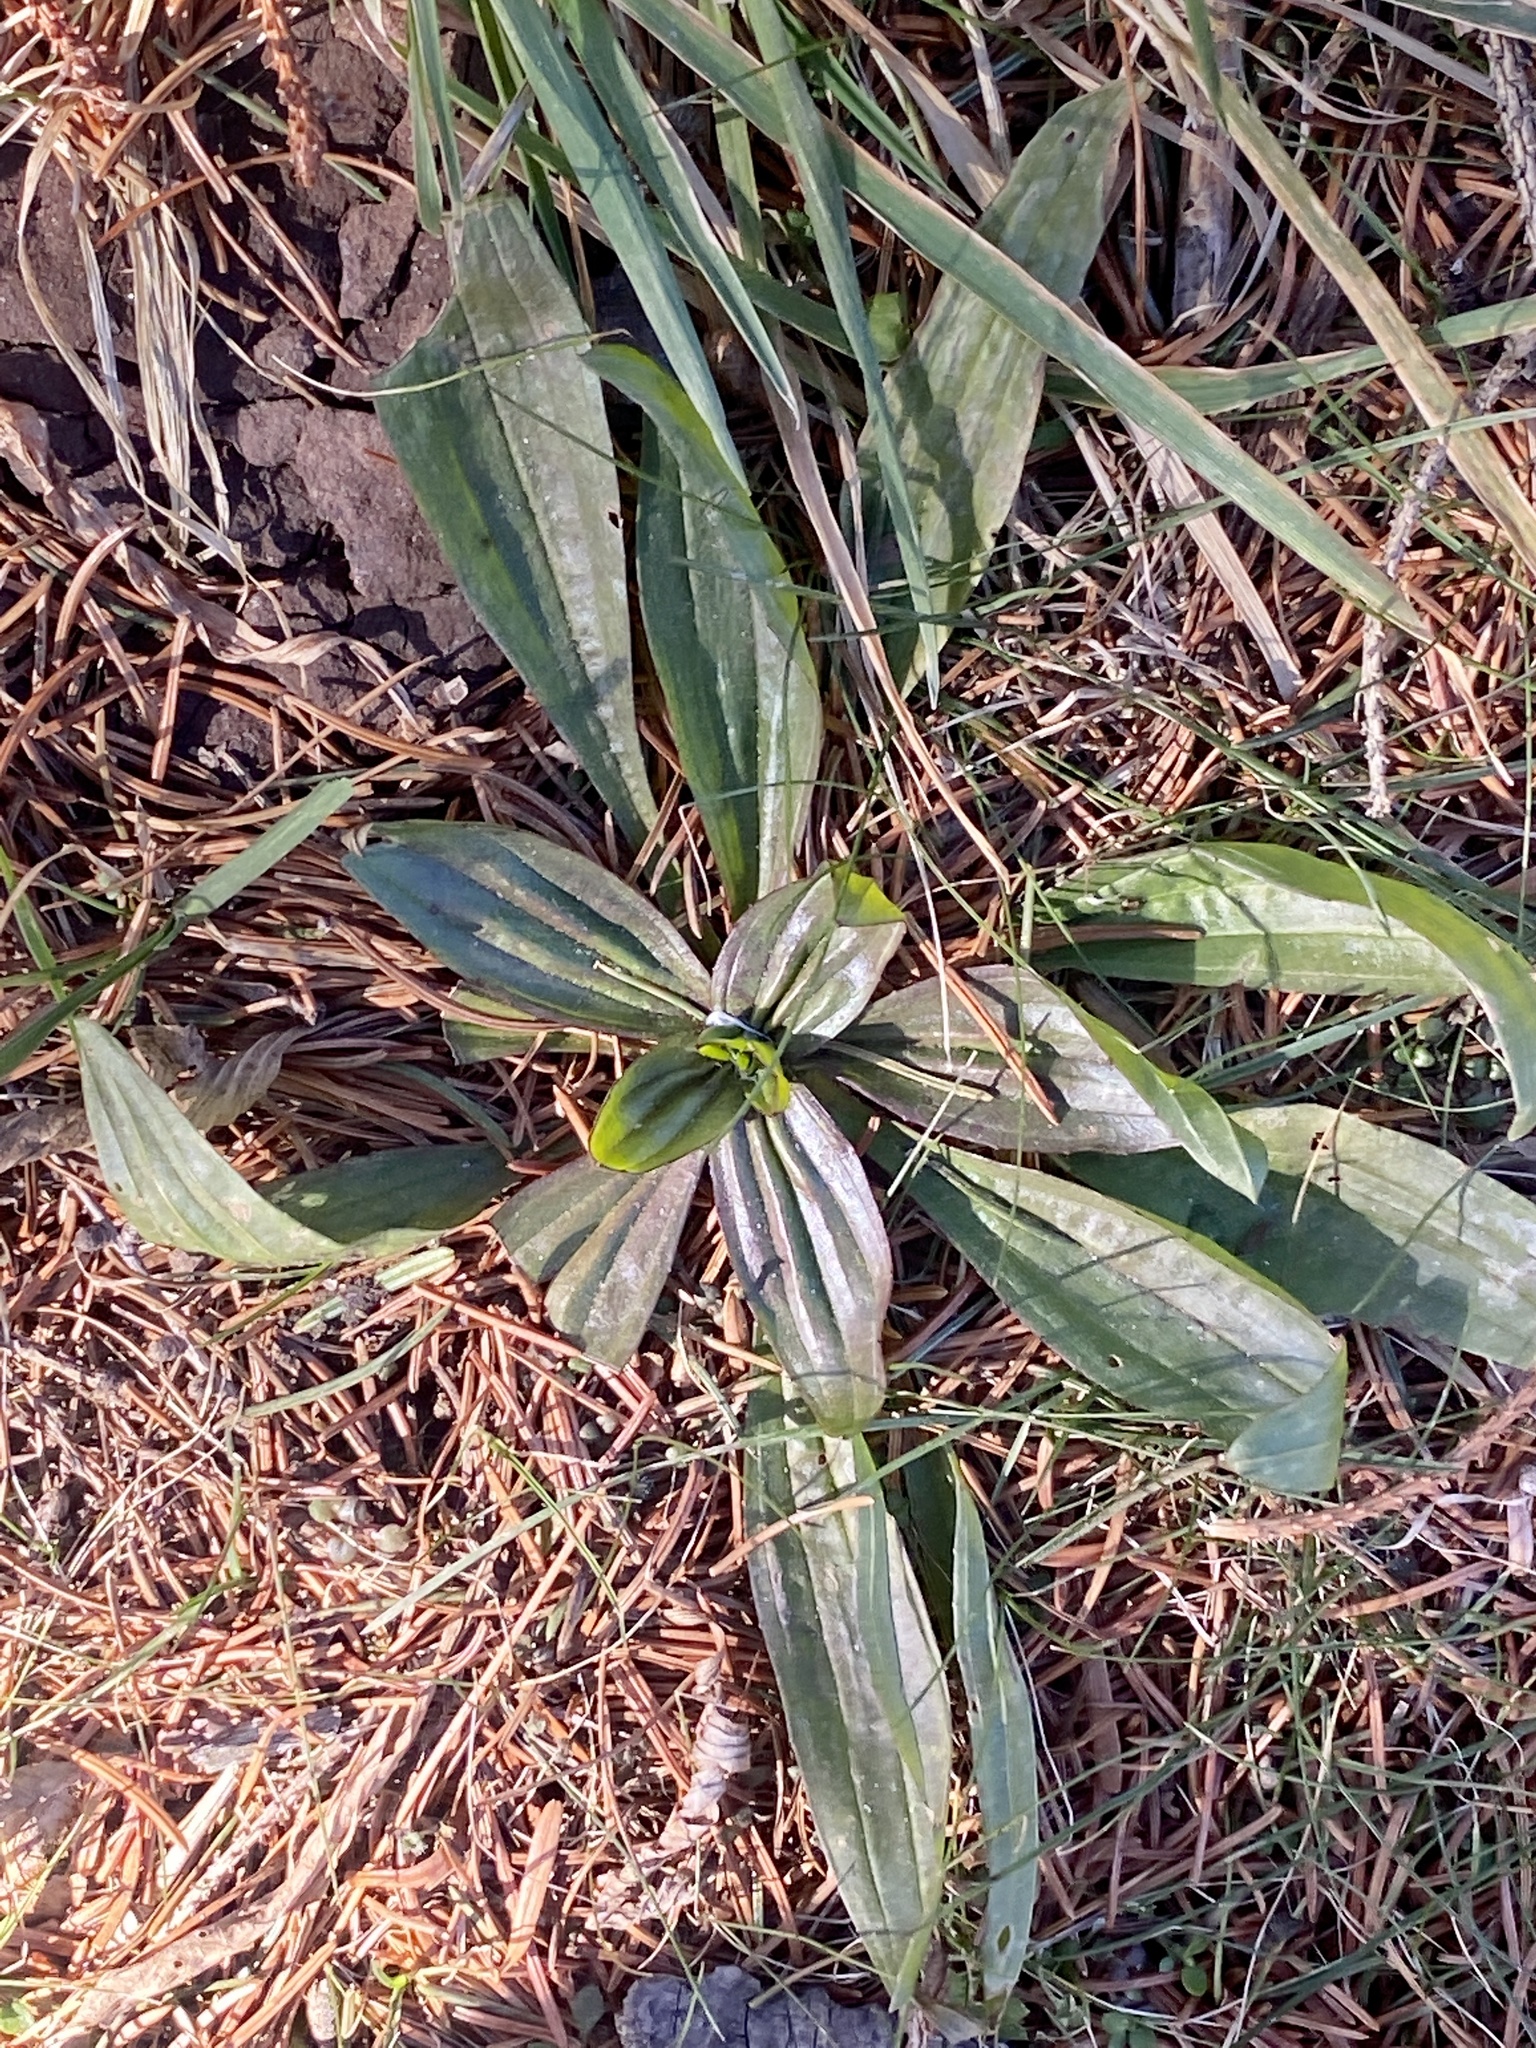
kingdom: Plantae
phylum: Tracheophyta
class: Magnoliopsida
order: Lamiales
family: Plantaginaceae
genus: Plantago
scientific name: Plantago lanceolata
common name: Ribwort plantain
